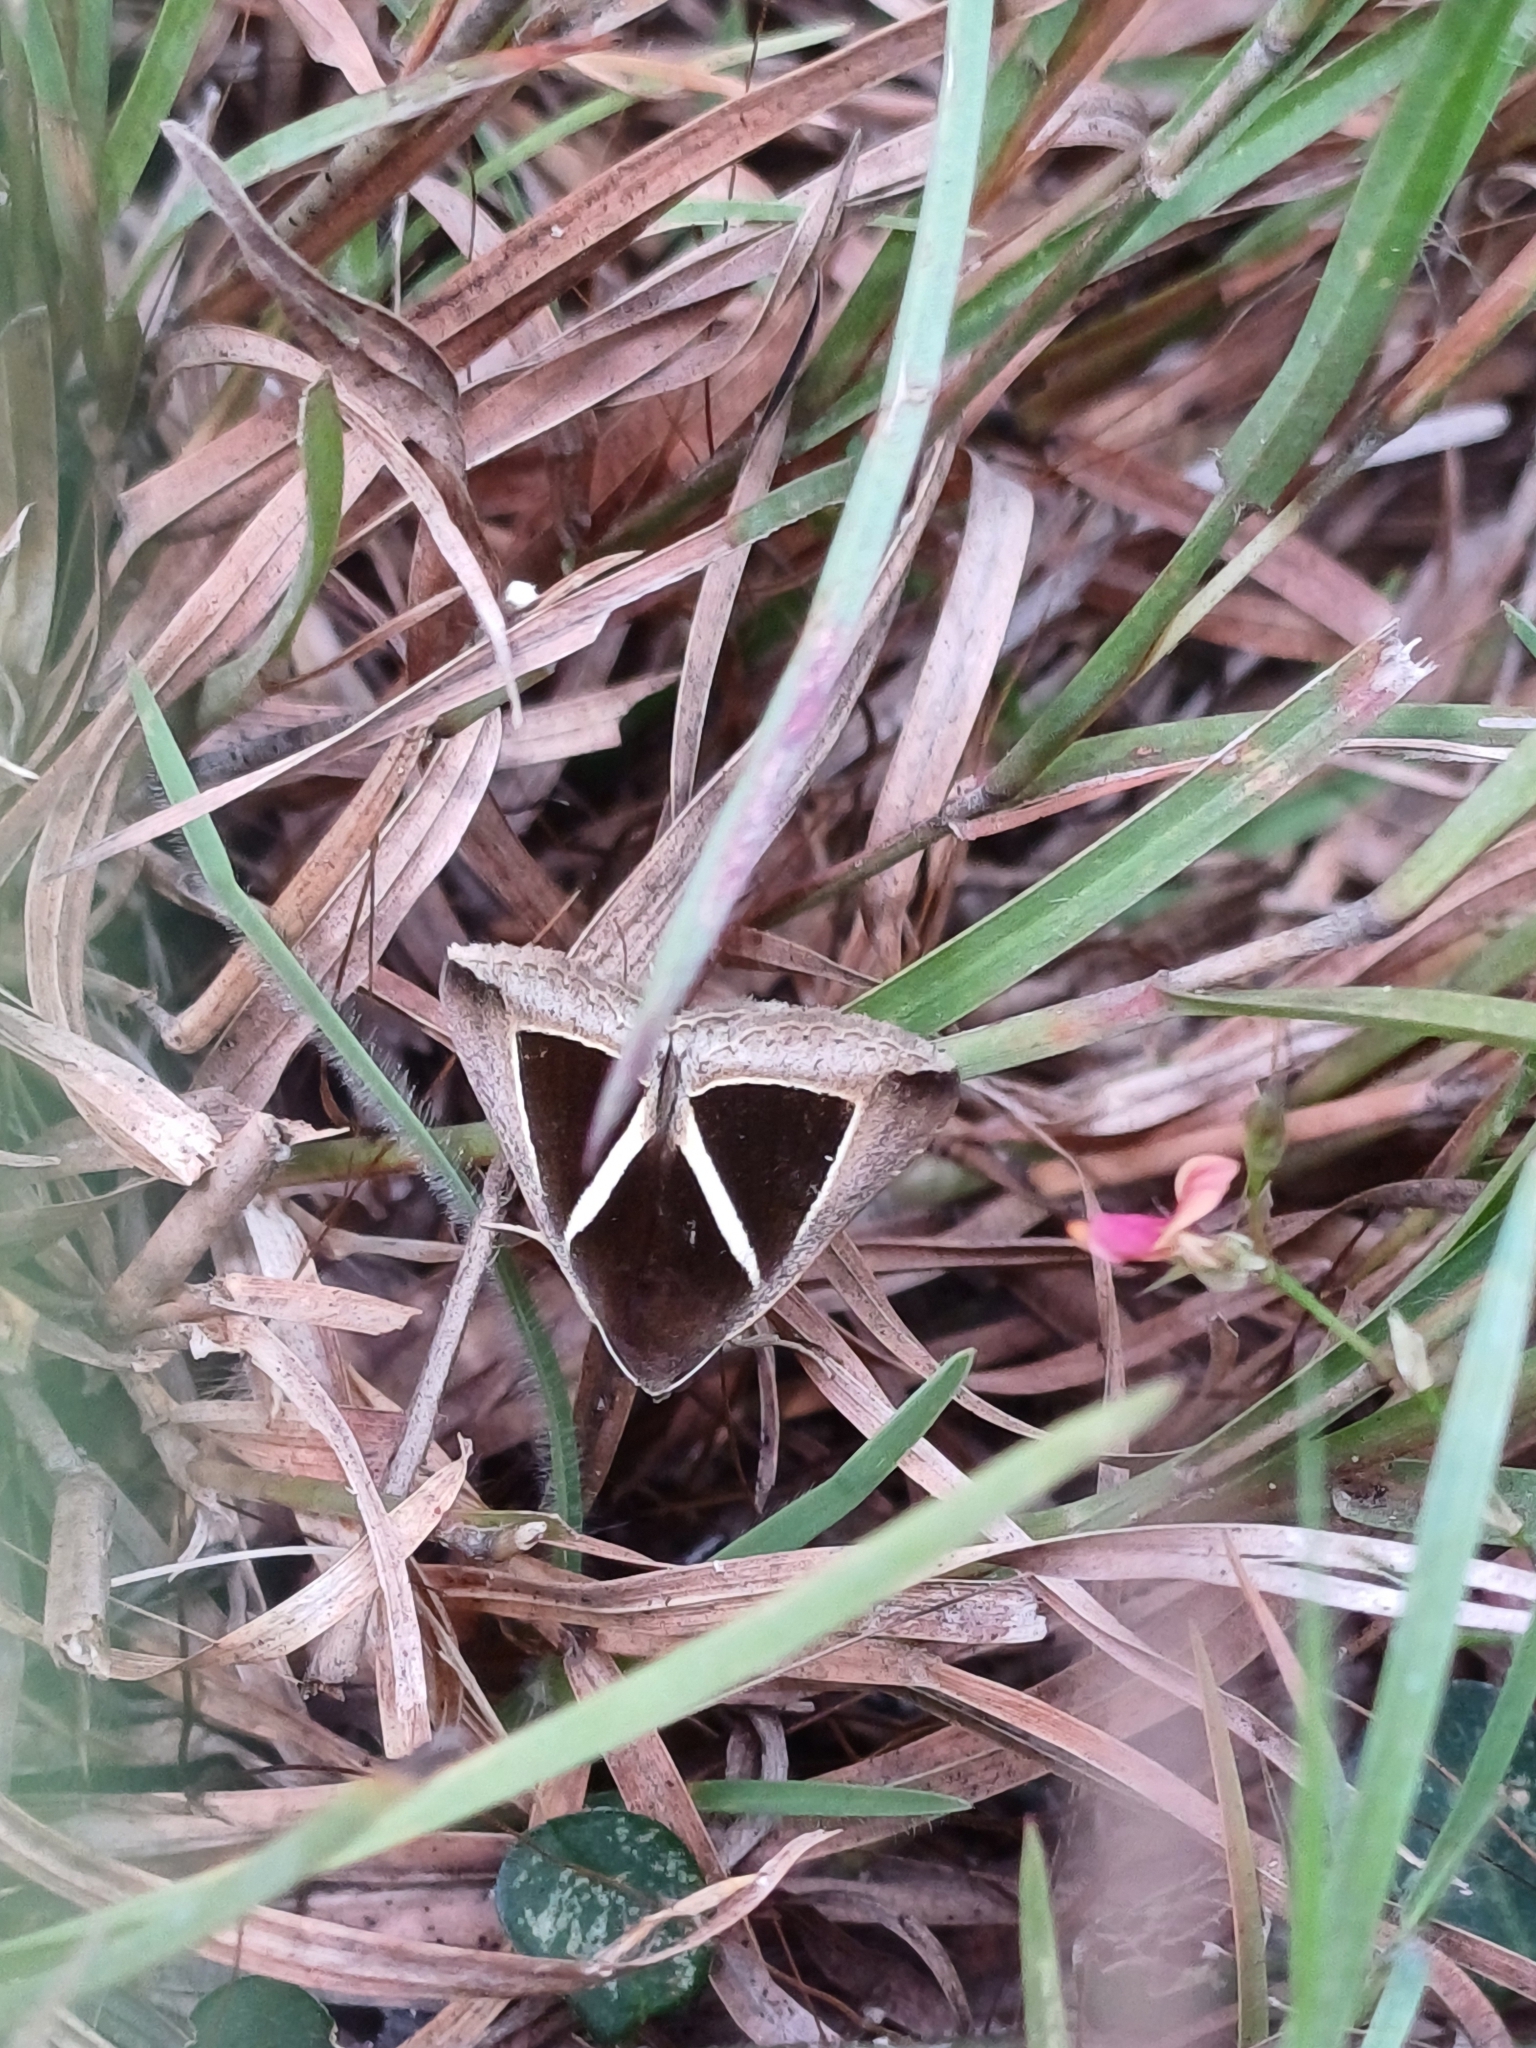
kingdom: Animalia
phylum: Arthropoda
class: Insecta
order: Lepidoptera
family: Erebidae
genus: Chalciope
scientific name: Chalciope mygdon
